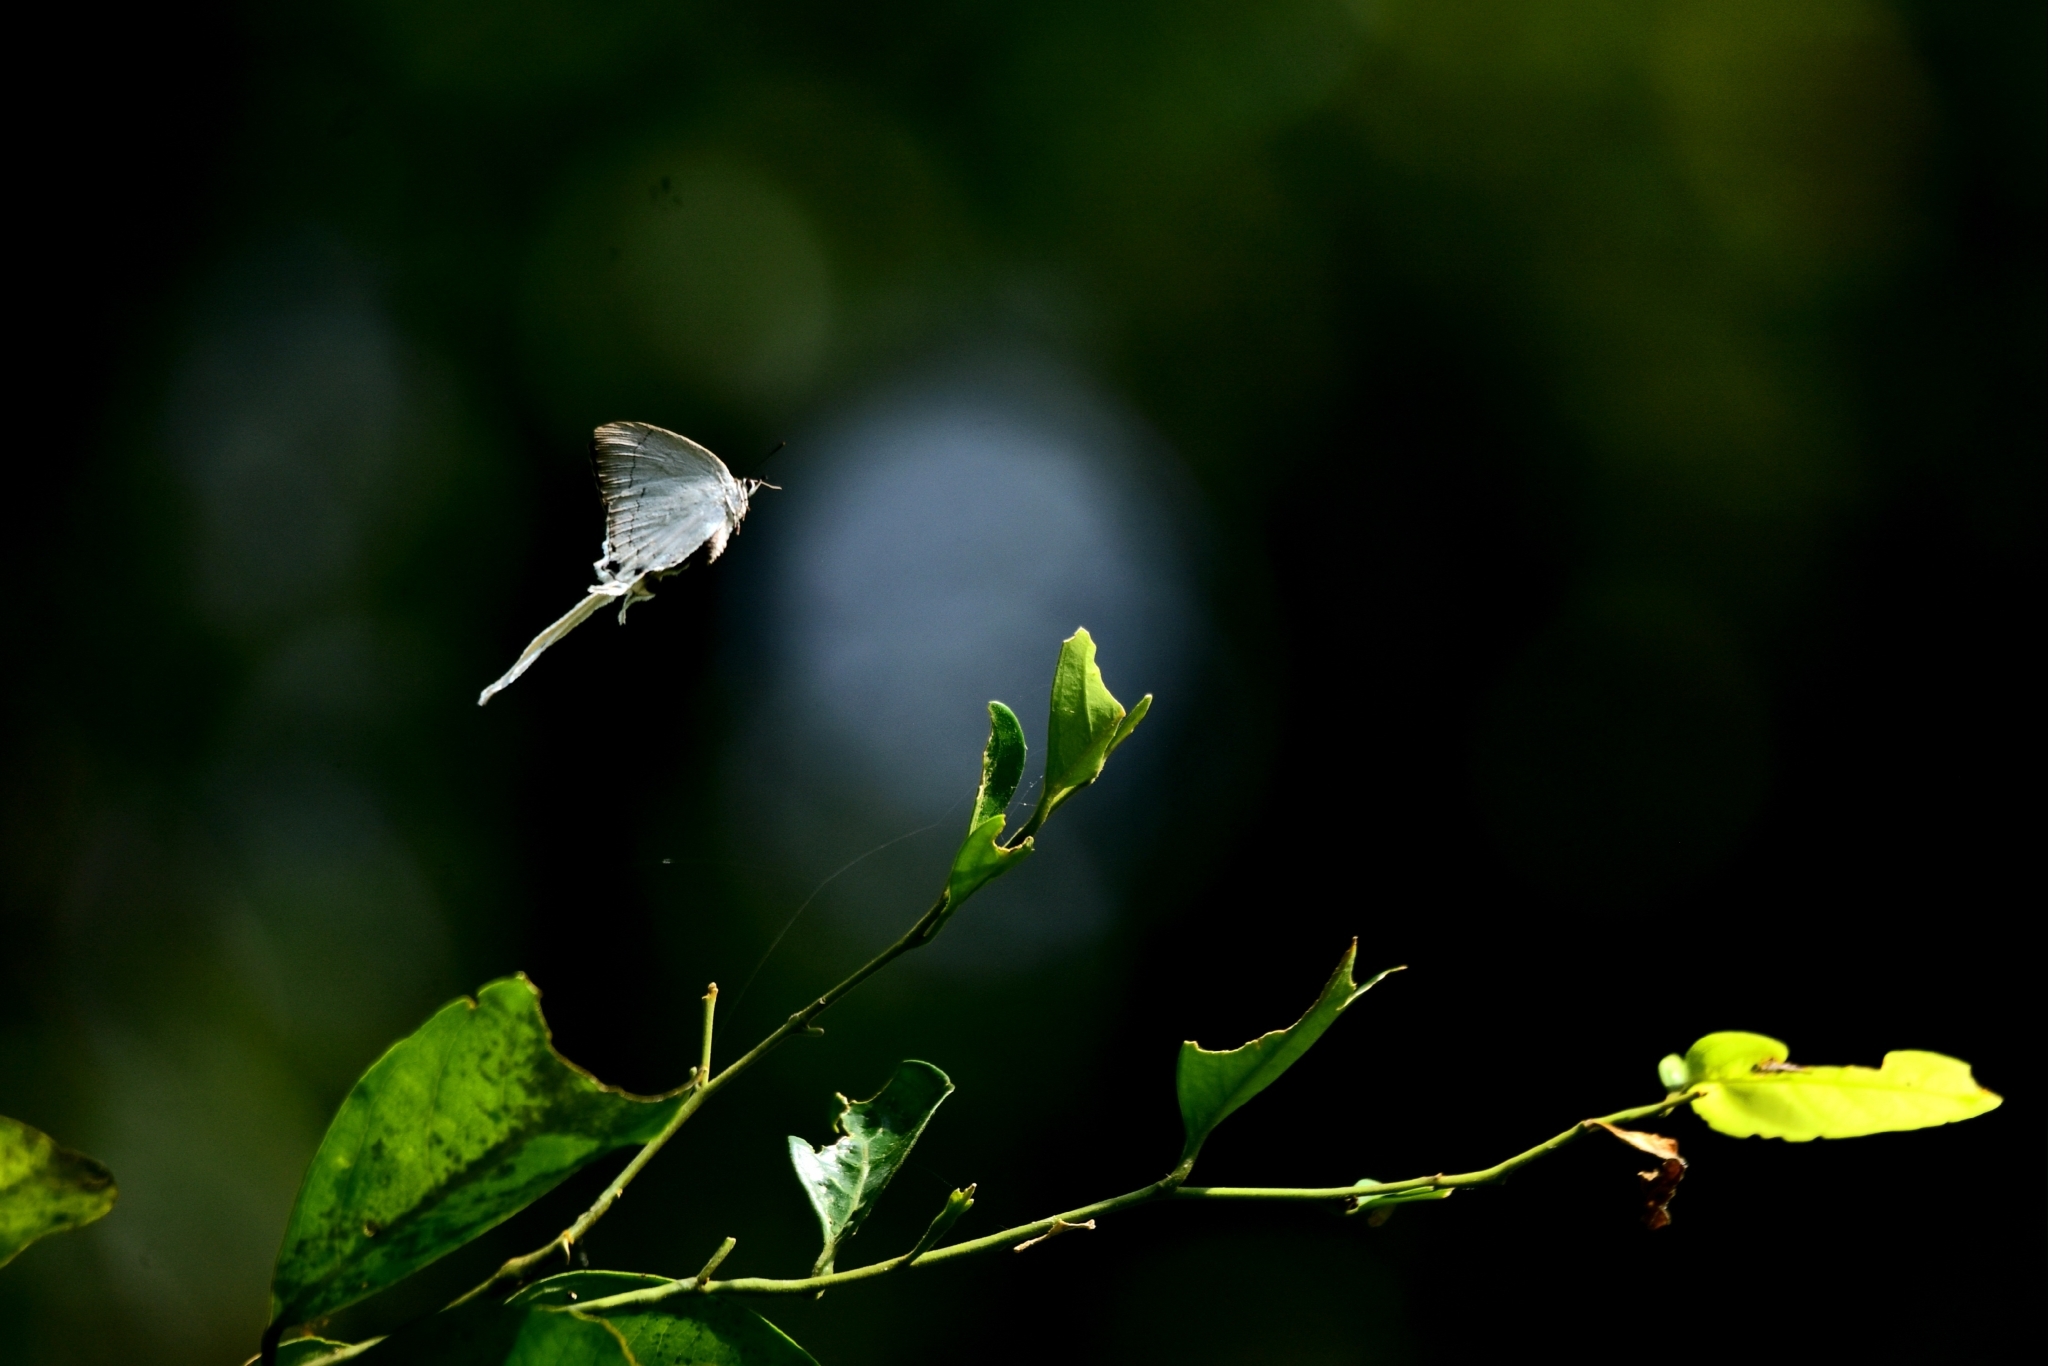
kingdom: Animalia
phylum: Arthropoda
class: Insecta
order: Lepidoptera
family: Lycaenidae
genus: Cheritra
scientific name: Cheritra freja
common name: Common imperial
